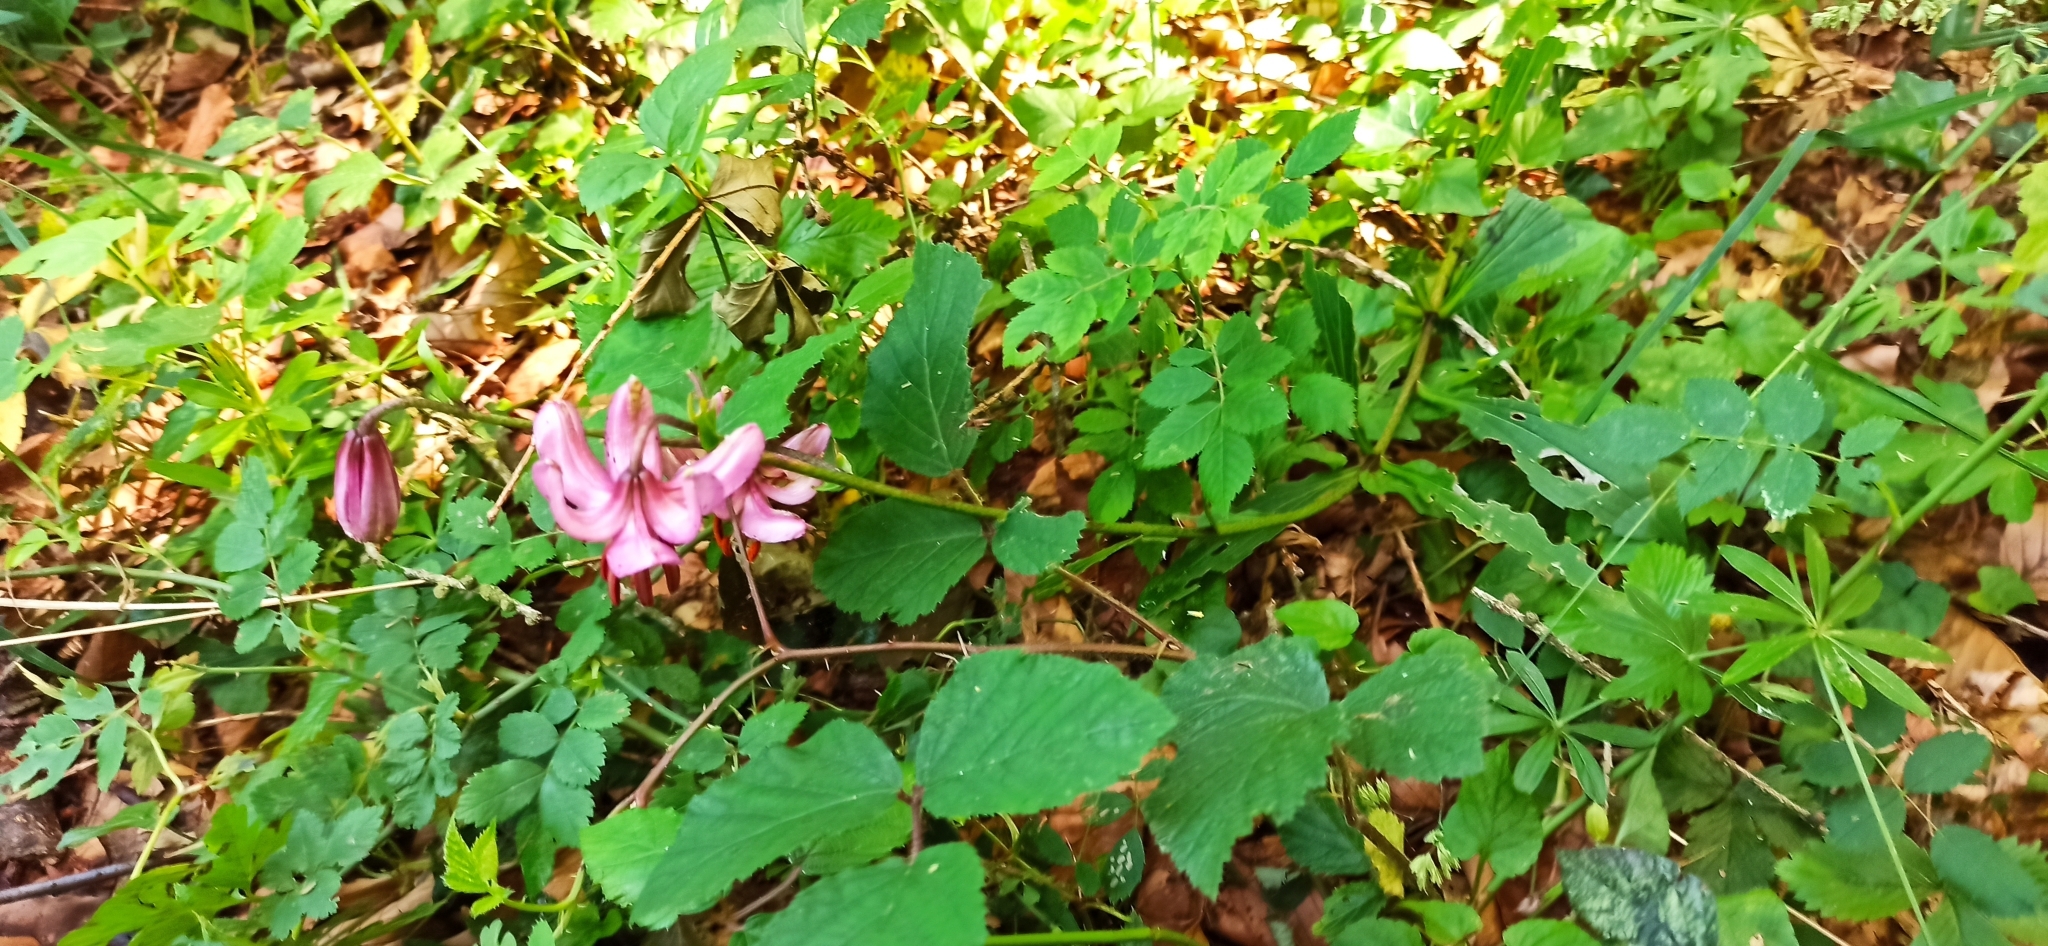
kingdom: Plantae
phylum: Tracheophyta
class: Liliopsida
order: Liliales
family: Liliaceae
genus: Lilium
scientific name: Lilium martagon
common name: Martagon lily
